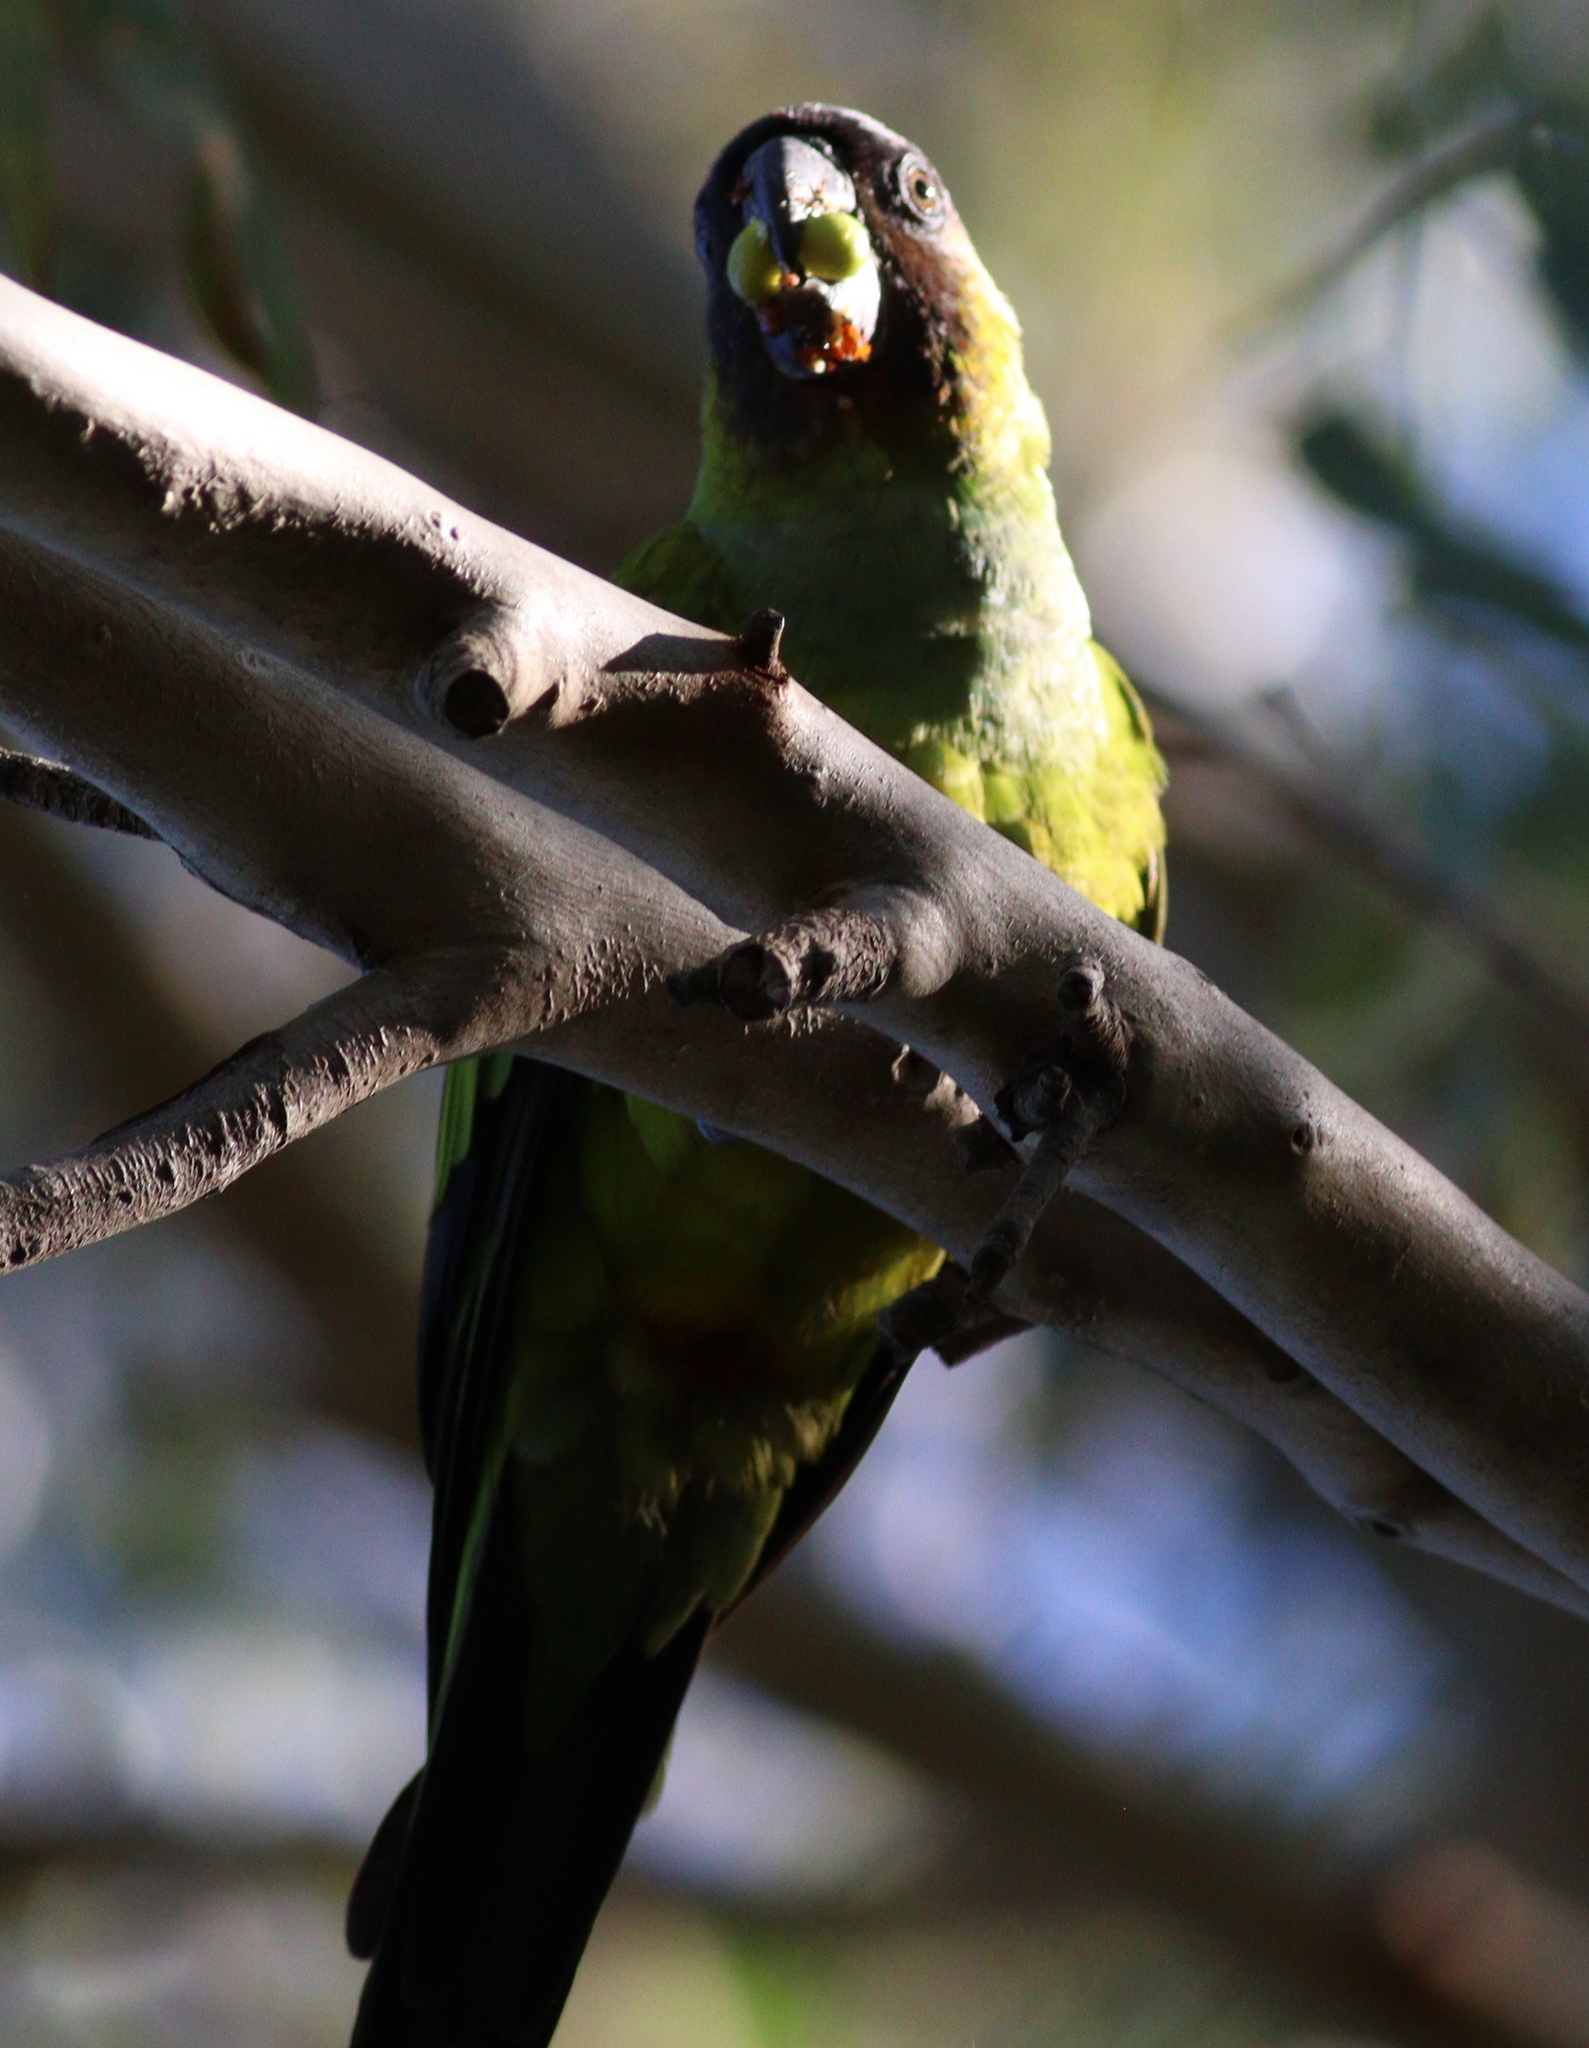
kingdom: Animalia
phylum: Chordata
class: Aves
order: Psittaciformes
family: Psittacidae
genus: Nandayus
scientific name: Nandayus nenday
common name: Nanday parakeet
